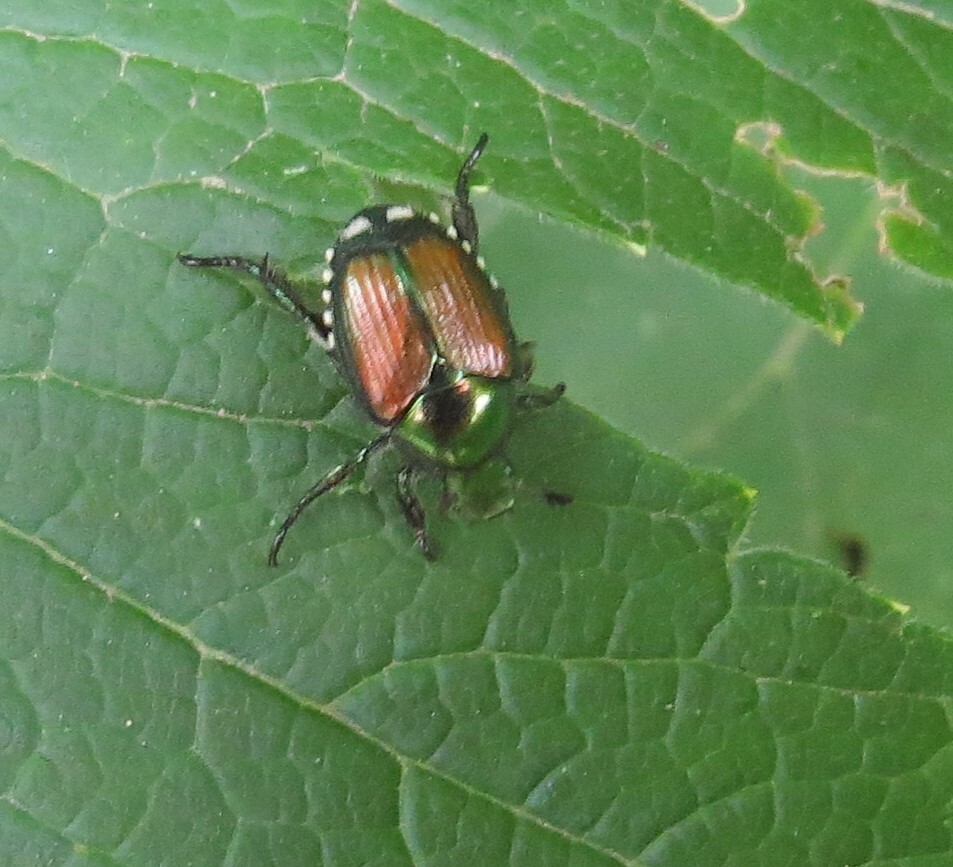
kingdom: Animalia
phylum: Arthropoda
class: Insecta
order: Coleoptera
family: Scarabaeidae
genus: Popillia
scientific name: Popillia japonica
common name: Japanese beetle
